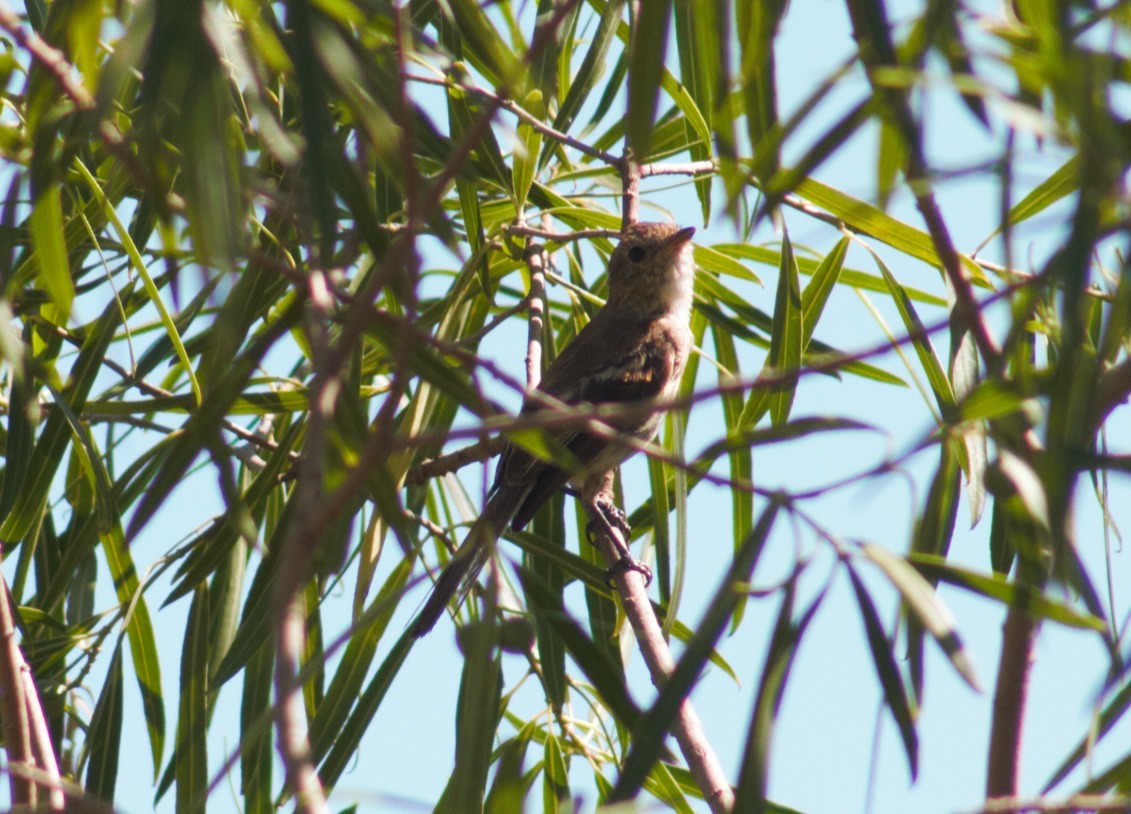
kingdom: Animalia
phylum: Chordata
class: Aves
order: Passeriformes
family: Tyrannidae
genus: Elaenia
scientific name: Elaenia spectabilis
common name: Large elaenia
